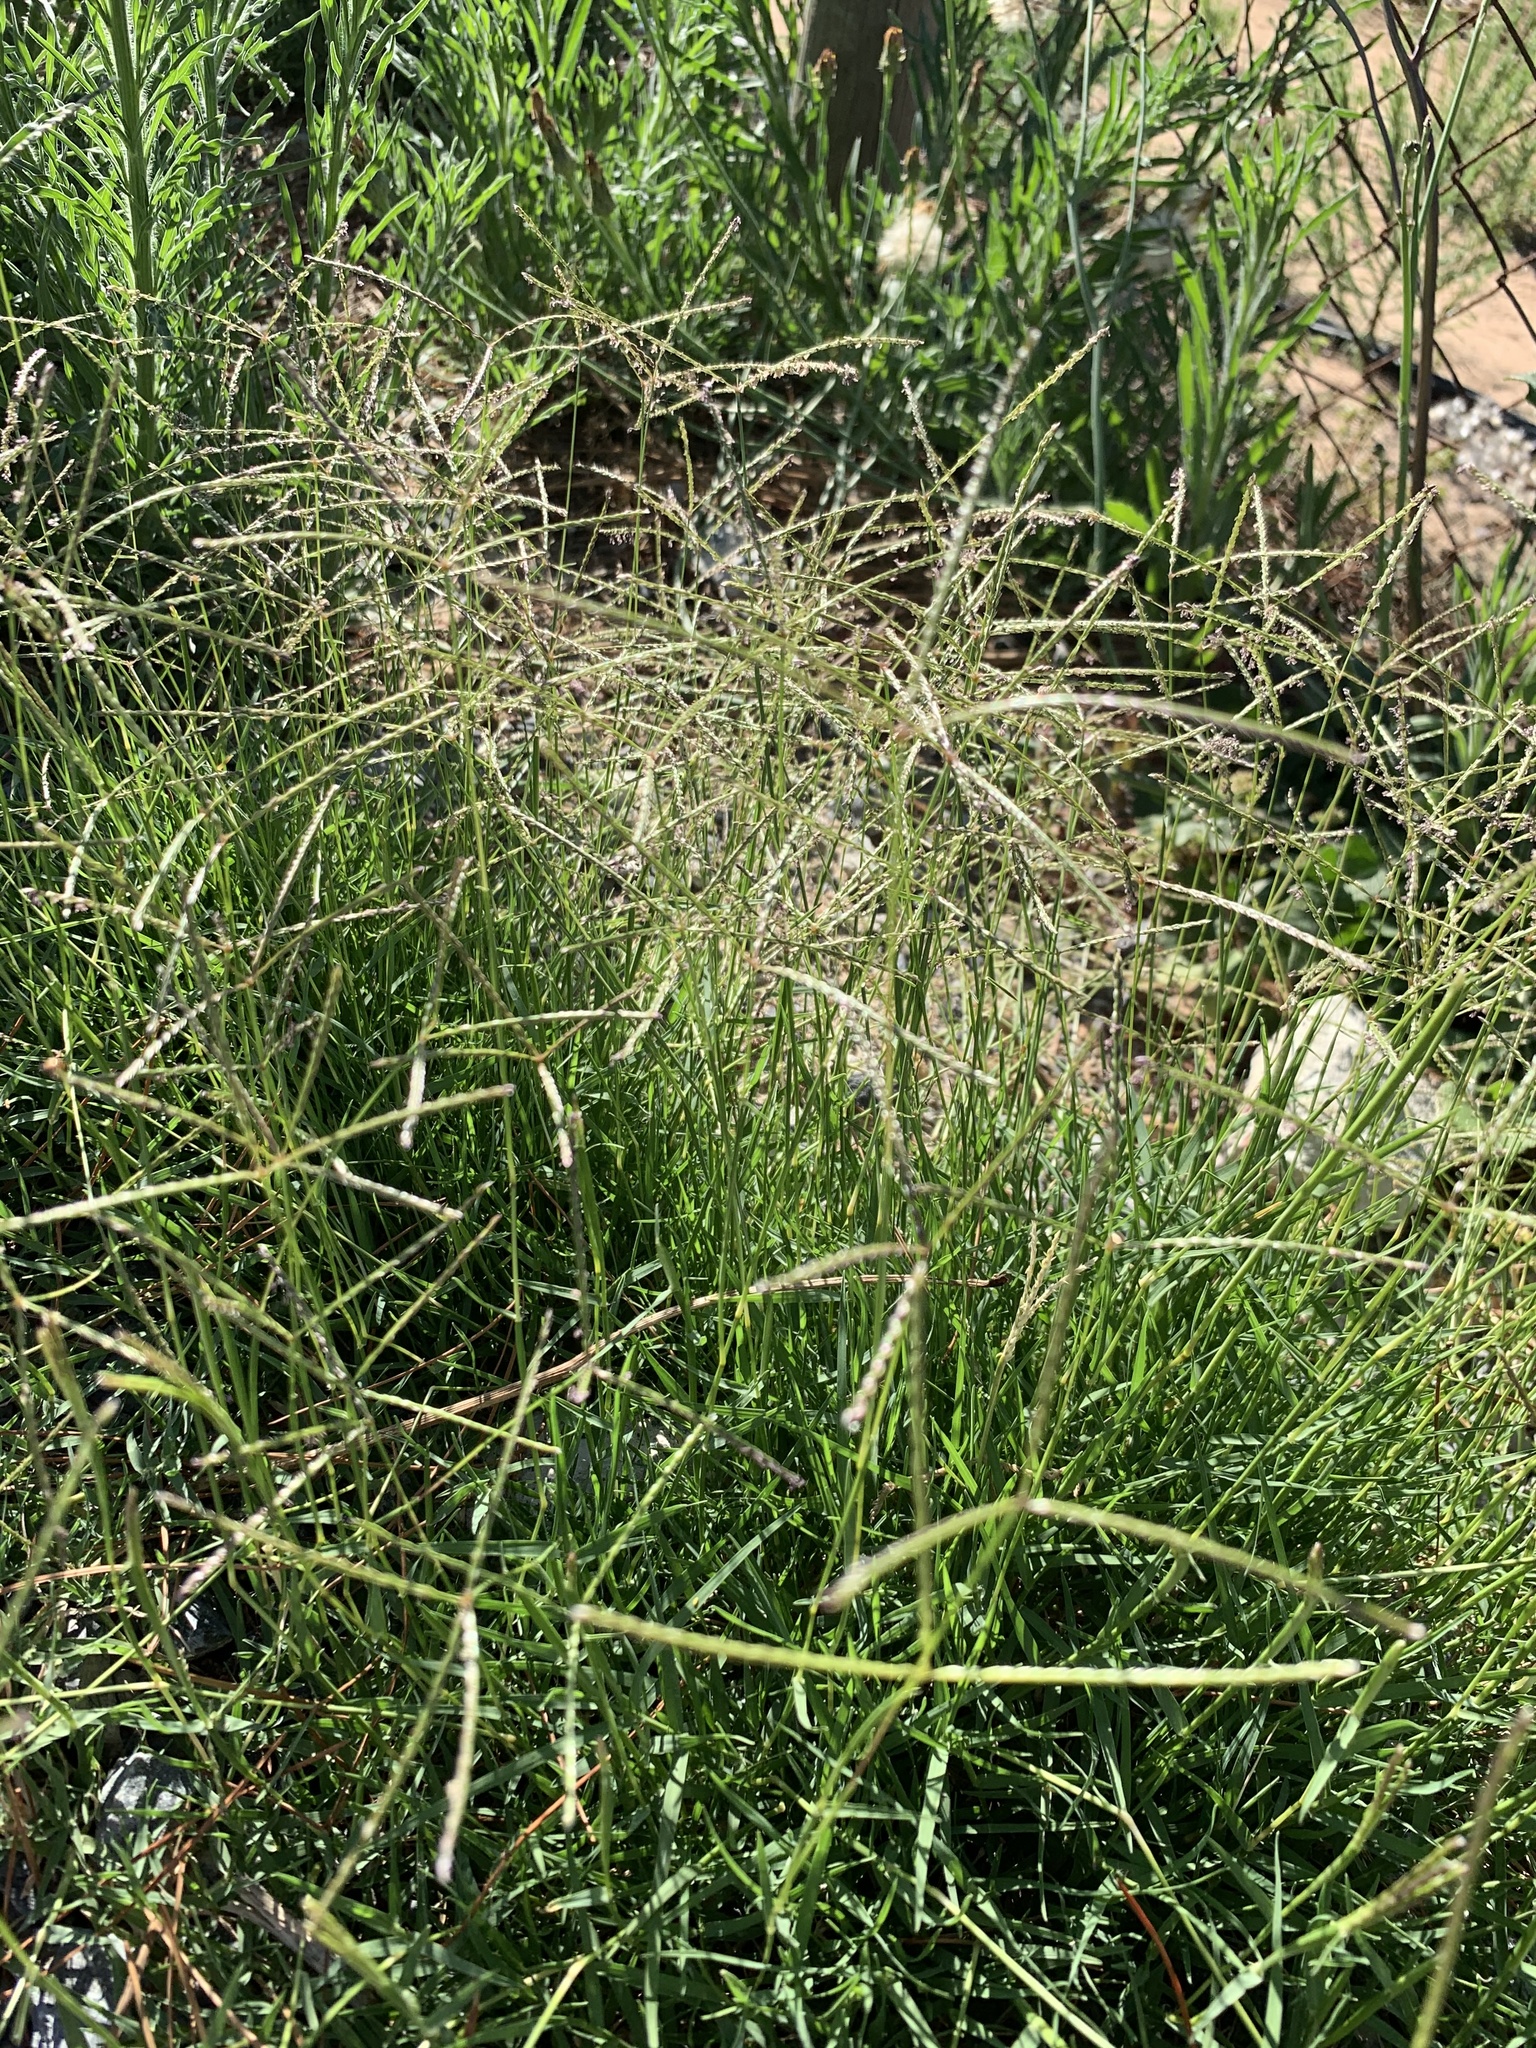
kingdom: Plantae
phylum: Tracheophyta
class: Liliopsida
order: Poales
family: Poaceae
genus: Cynodon
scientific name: Cynodon dactylon
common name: Bermuda grass
